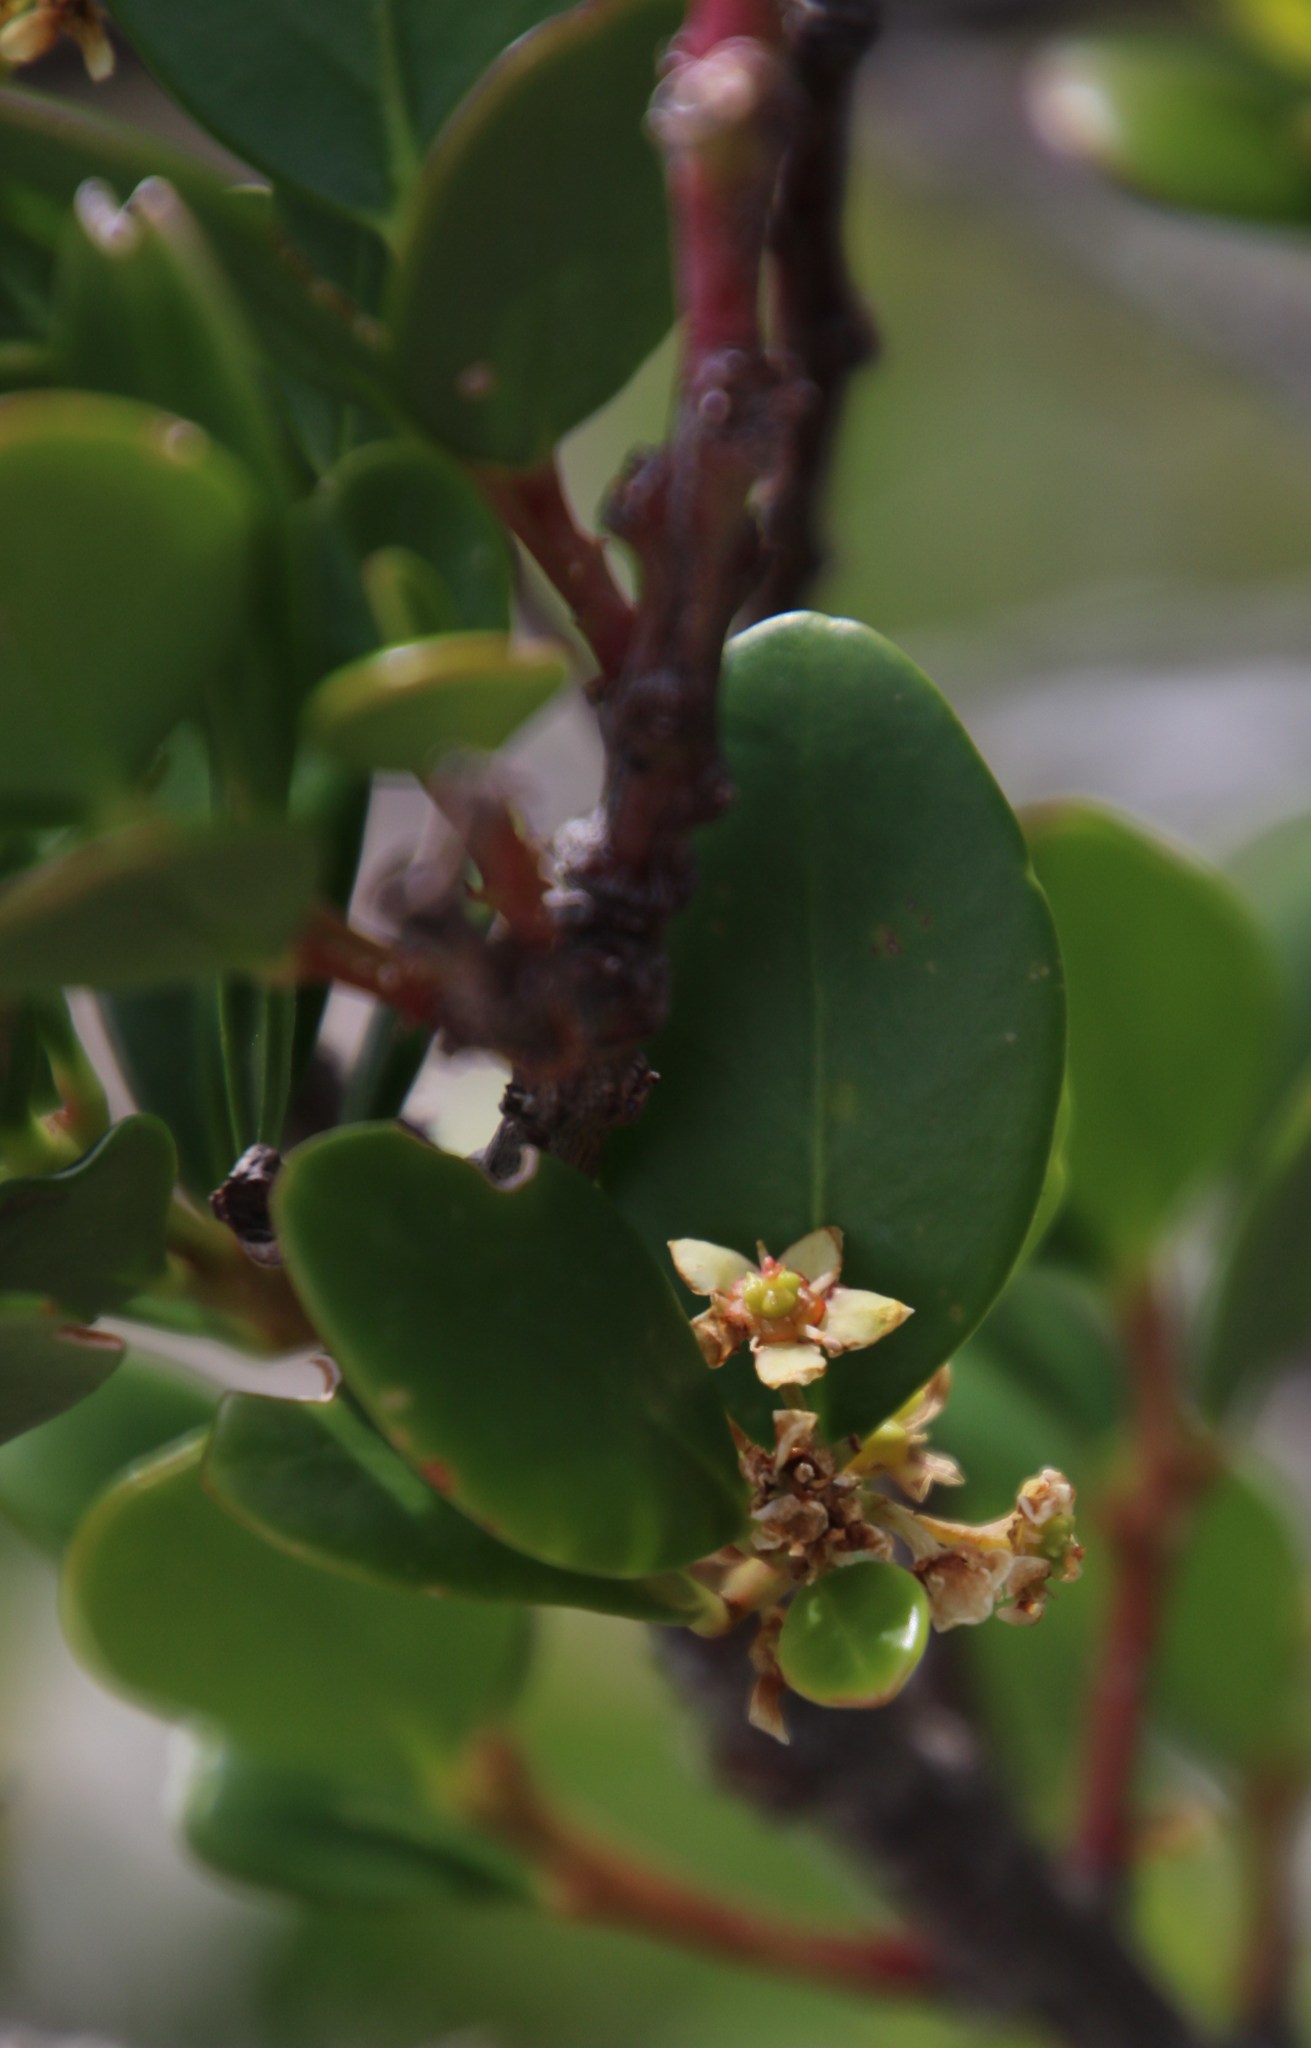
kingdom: Plantae
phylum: Tracheophyta
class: Magnoliopsida
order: Celastrales
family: Celastraceae
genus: Pterocelastrus
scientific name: Pterocelastrus tricuspidatus
